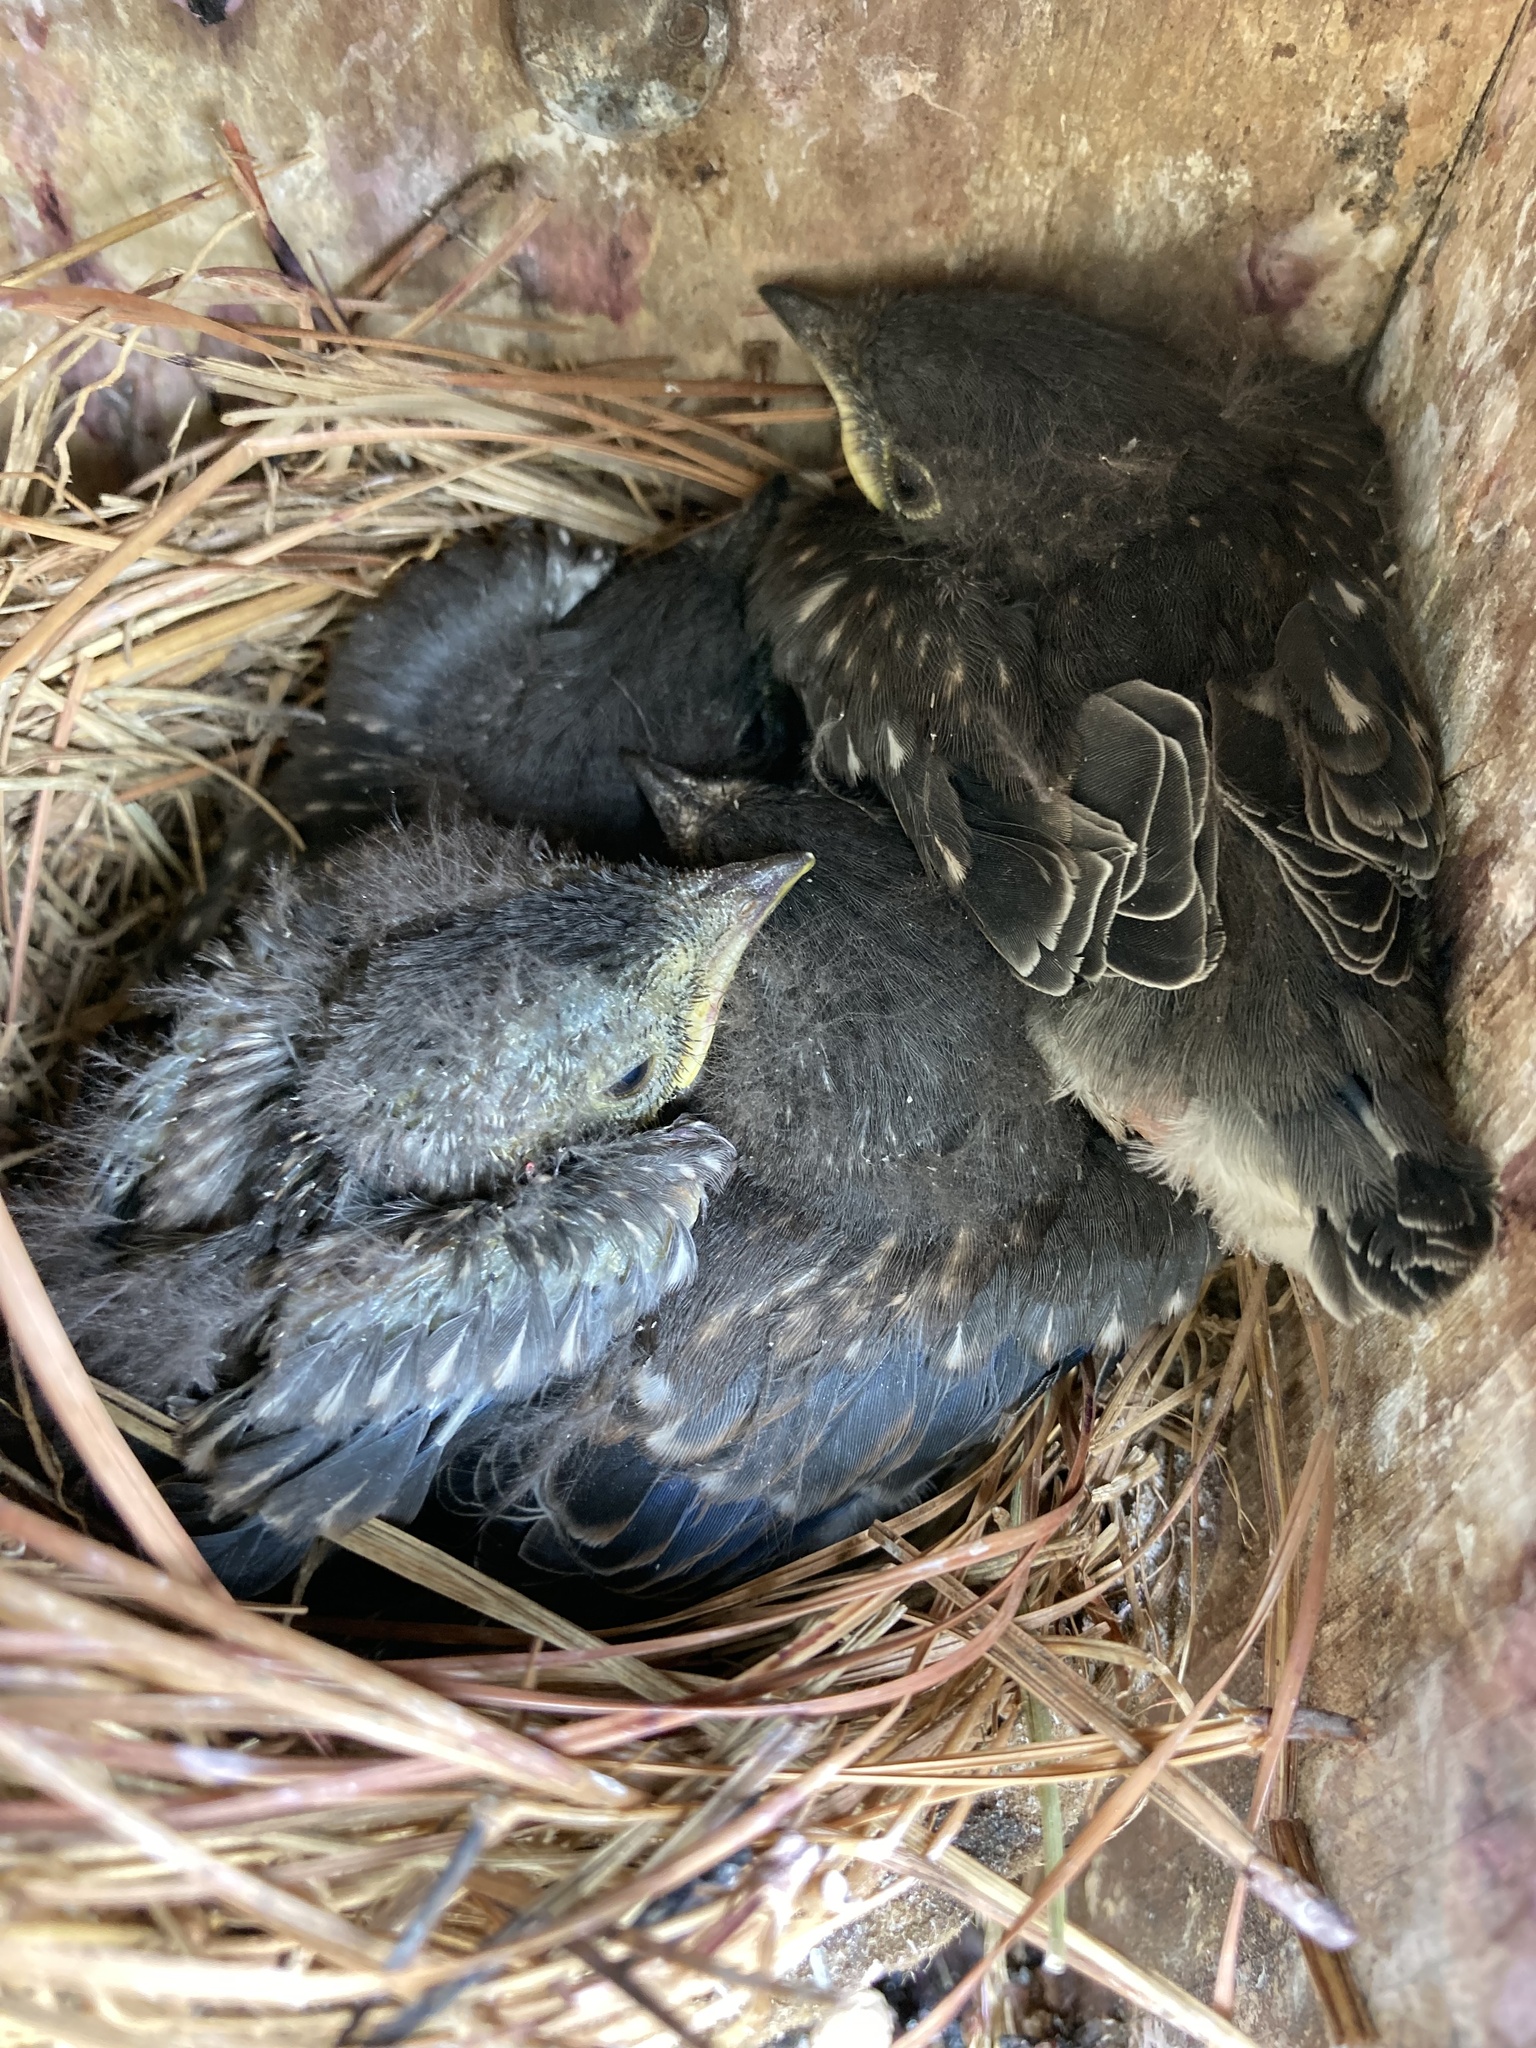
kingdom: Animalia
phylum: Chordata
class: Aves
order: Passeriformes
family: Turdidae
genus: Sialia
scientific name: Sialia sialis
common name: Eastern bluebird
